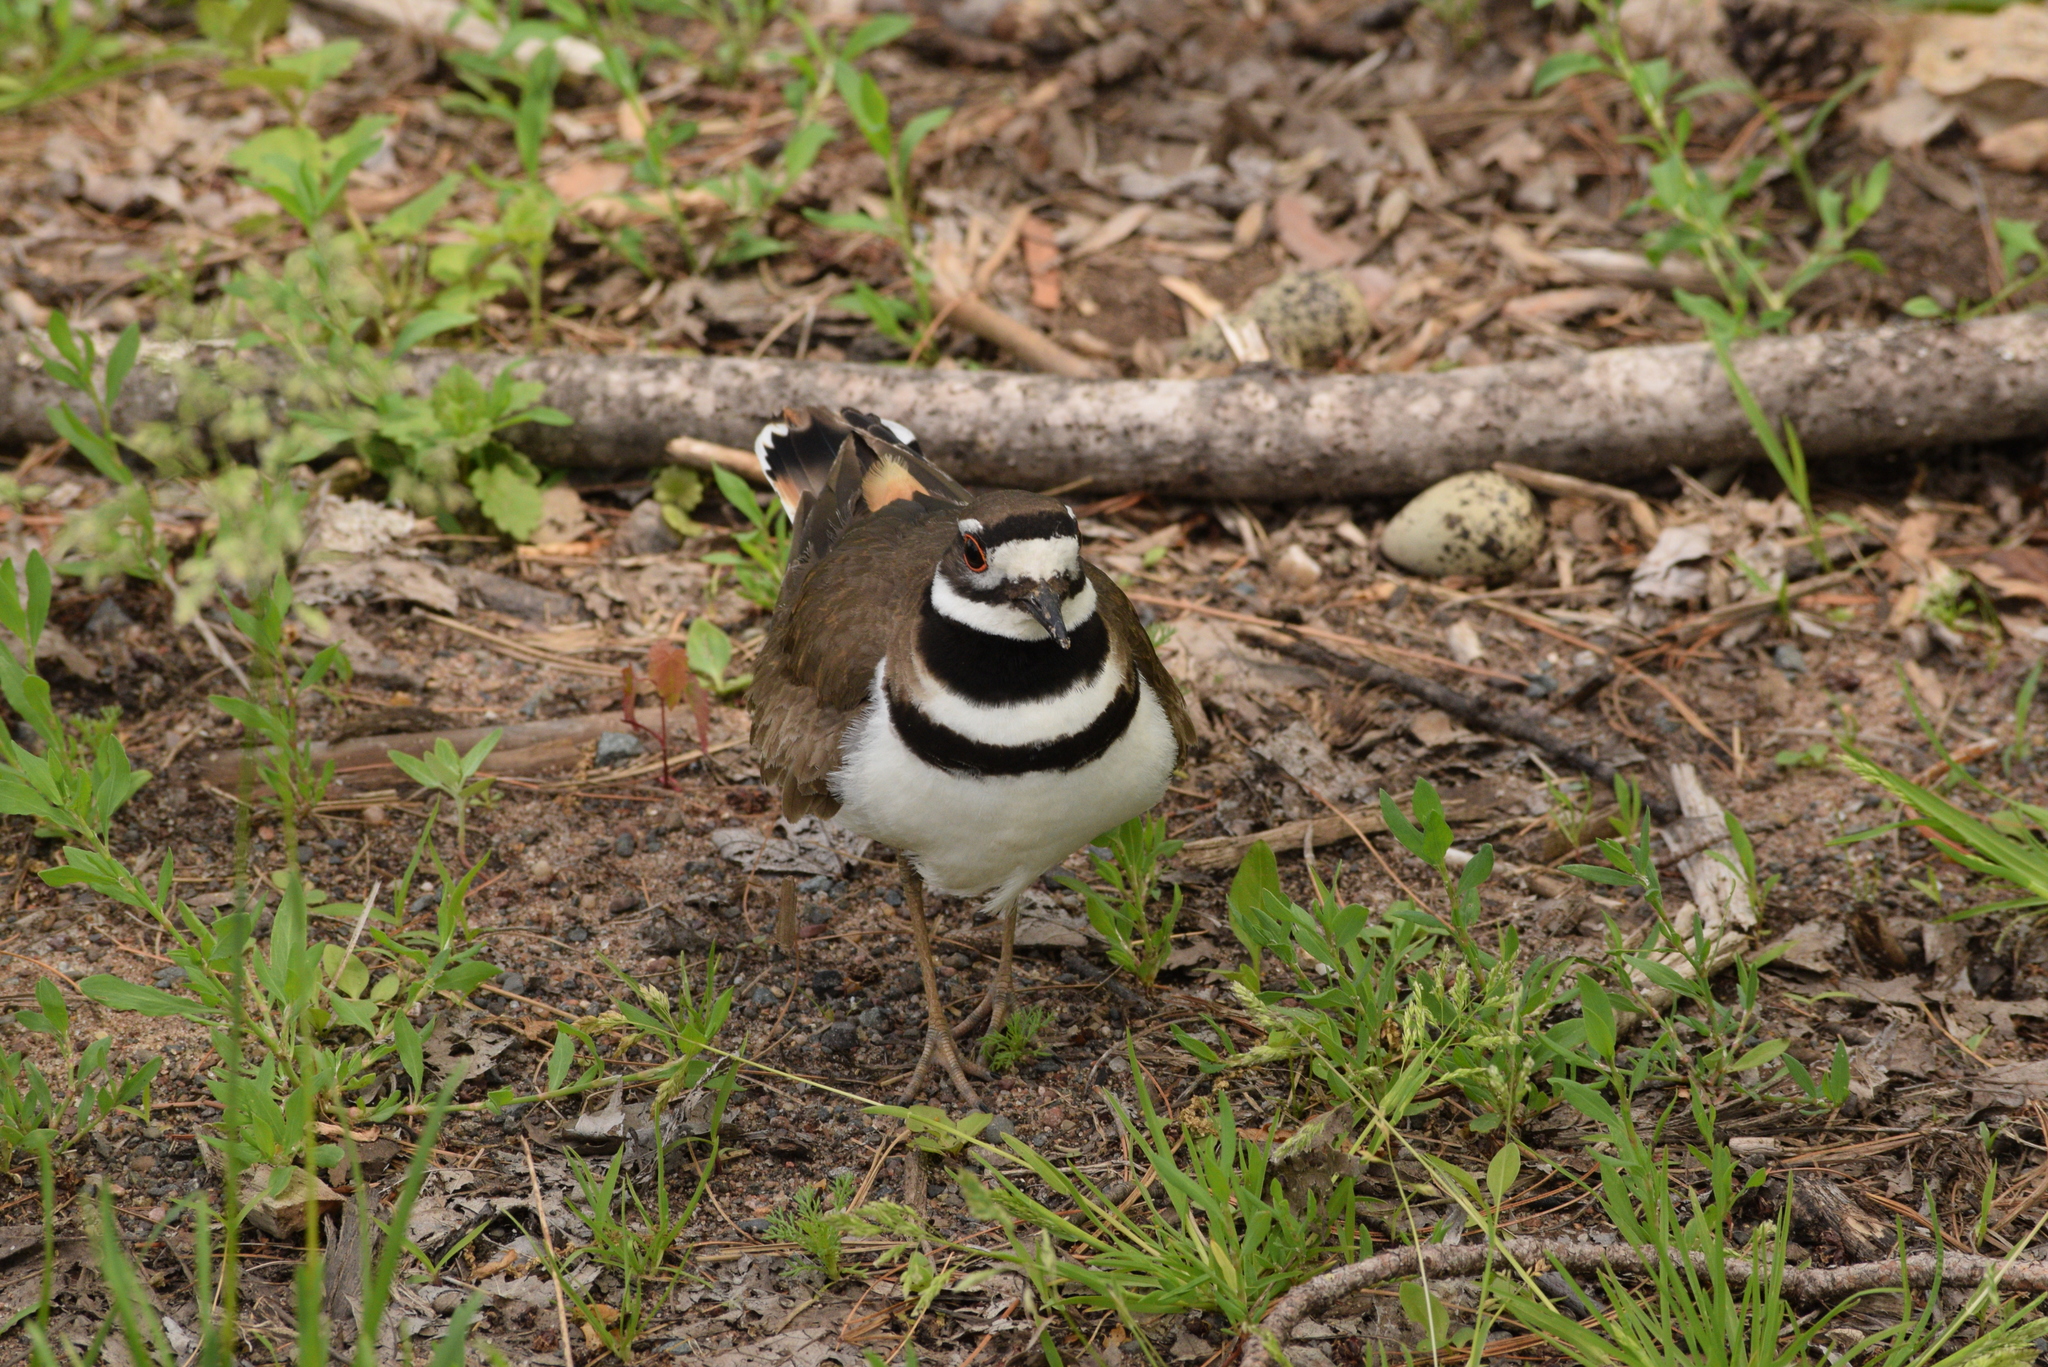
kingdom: Animalia
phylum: Chordata
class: Aves
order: Charadriiformes
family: Charadriidae
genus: Charadrius
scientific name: Charadrius vociferus
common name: Killdeer
